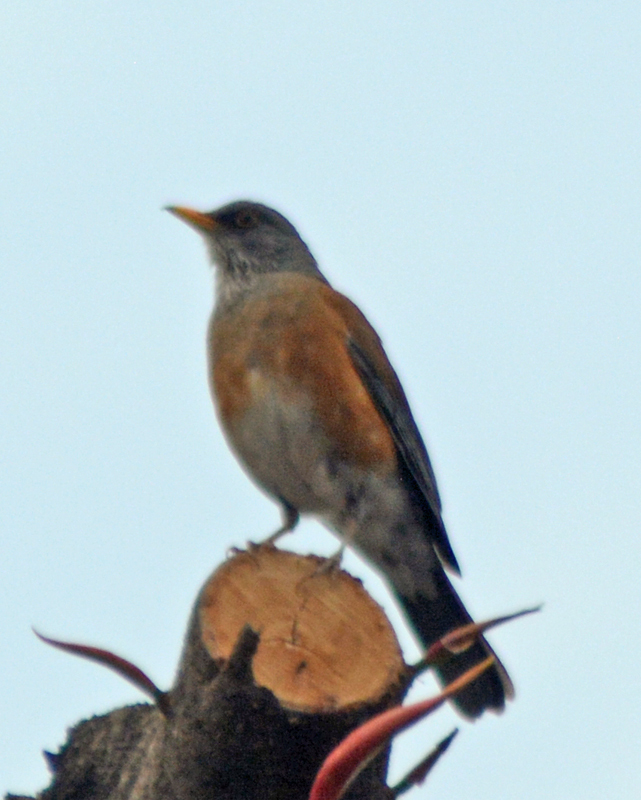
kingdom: Animalia
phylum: Chordata
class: Aves
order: Passeriformes
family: Turdidae
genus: Turdus
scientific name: Turdus rufopalliatus
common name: Rufous-backed robin
